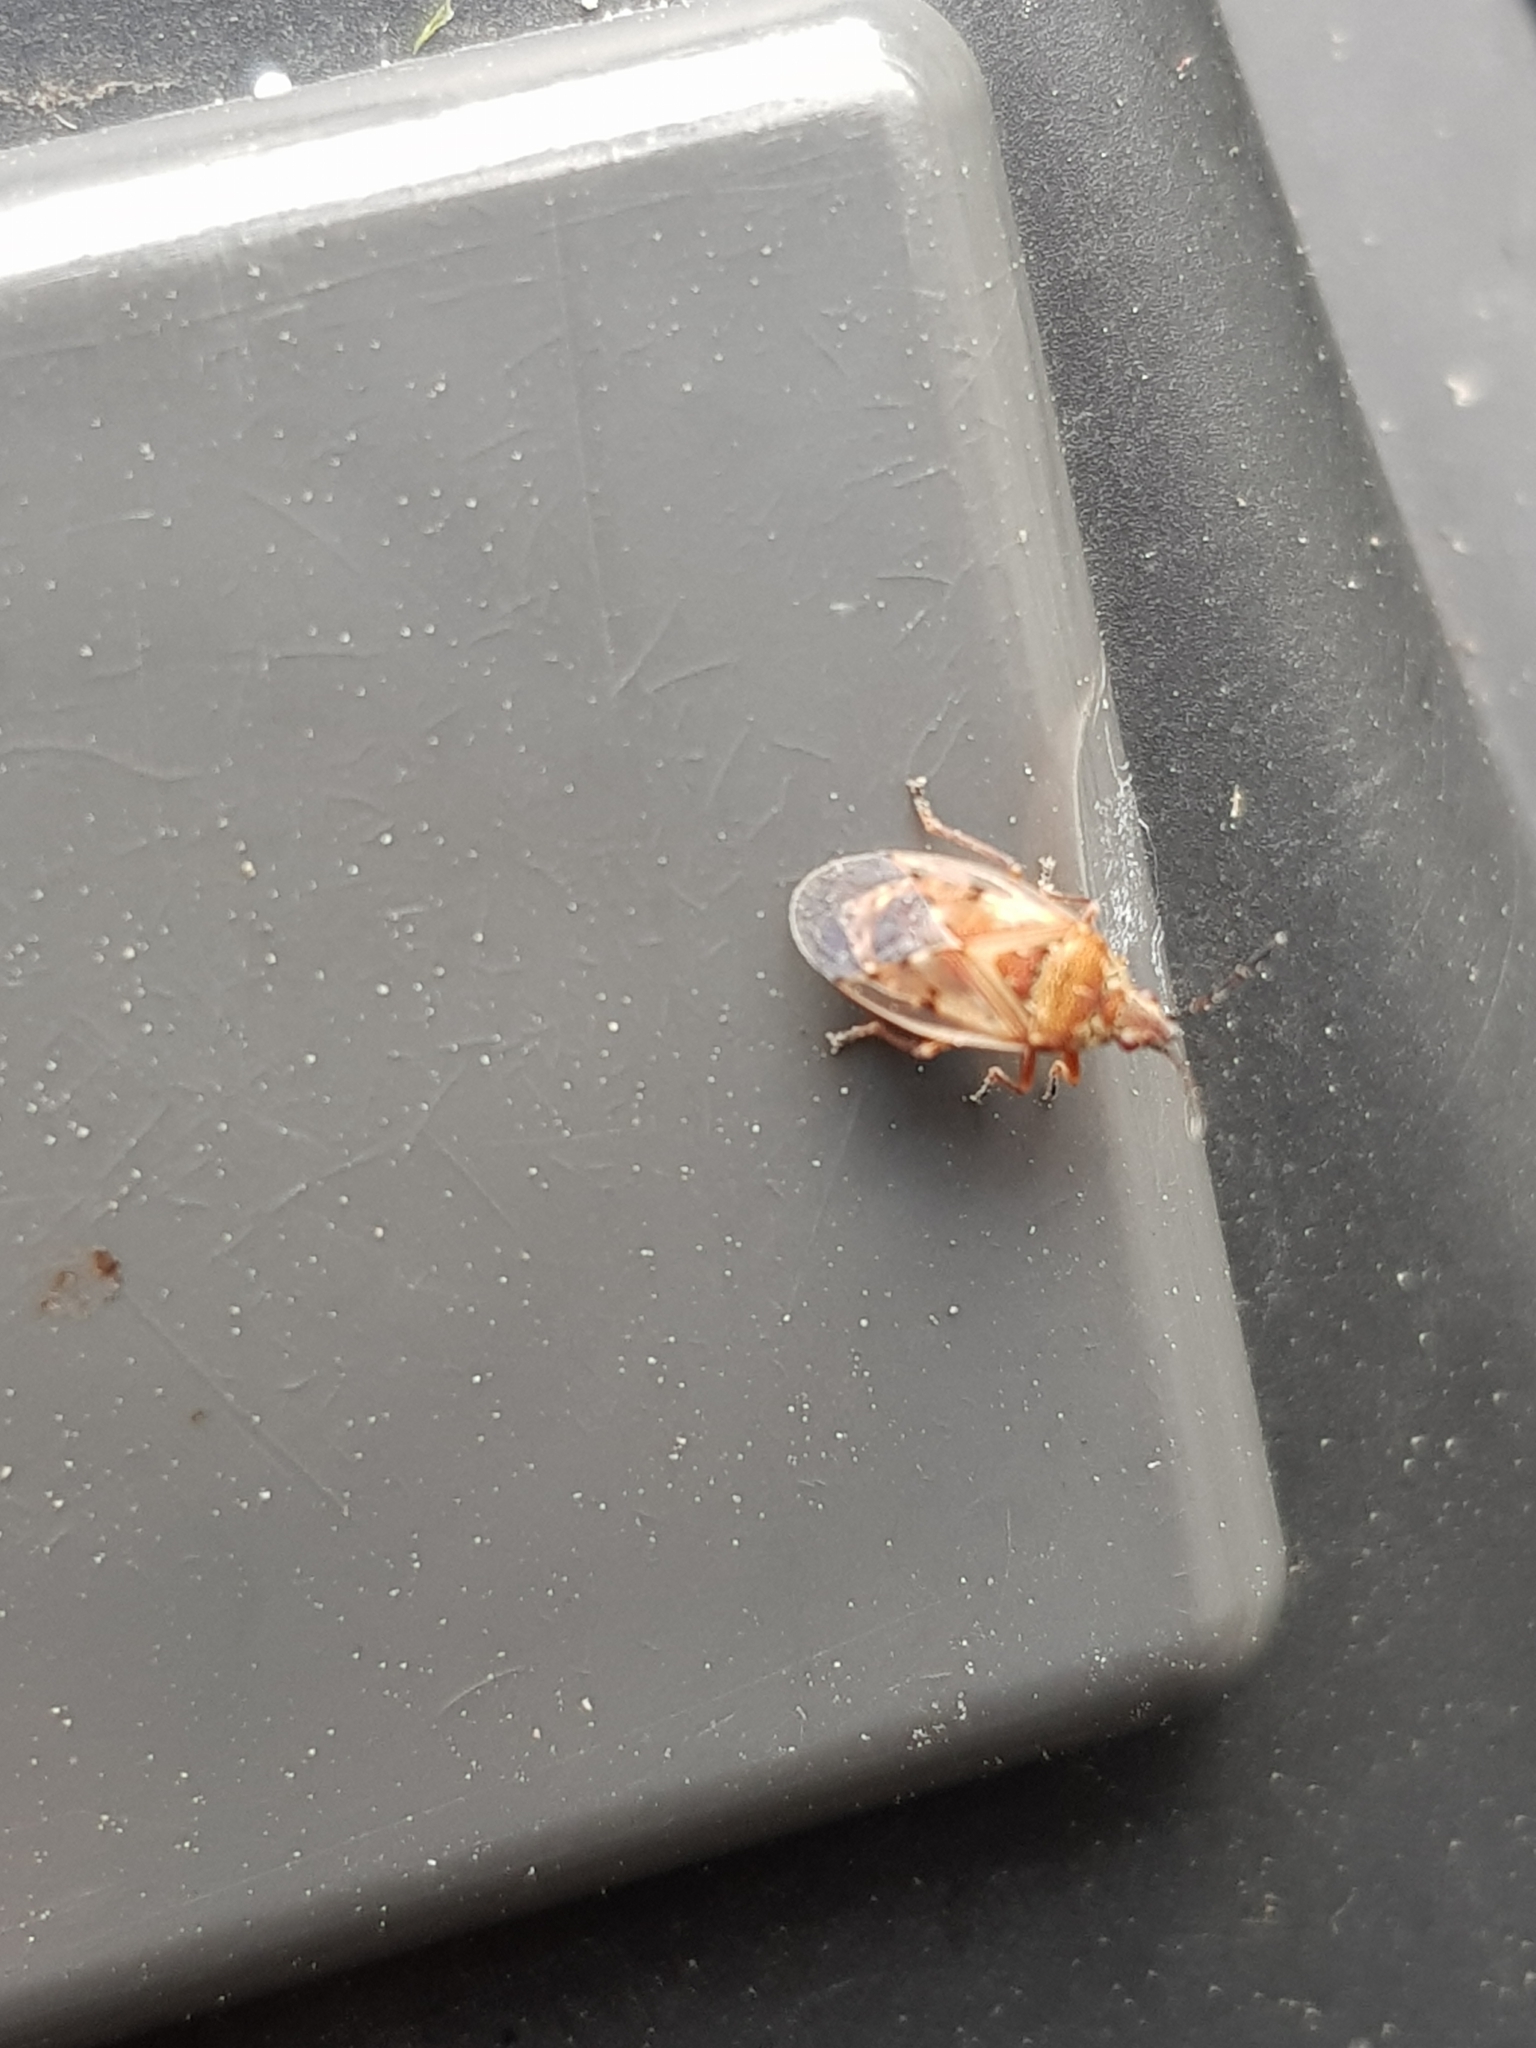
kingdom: Animalia
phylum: Arthropoda
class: Insecta
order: Hemiptera
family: Lygaeidae
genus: Kleidocerys
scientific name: Kleidocerys resedae
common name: Birch catkin bug
